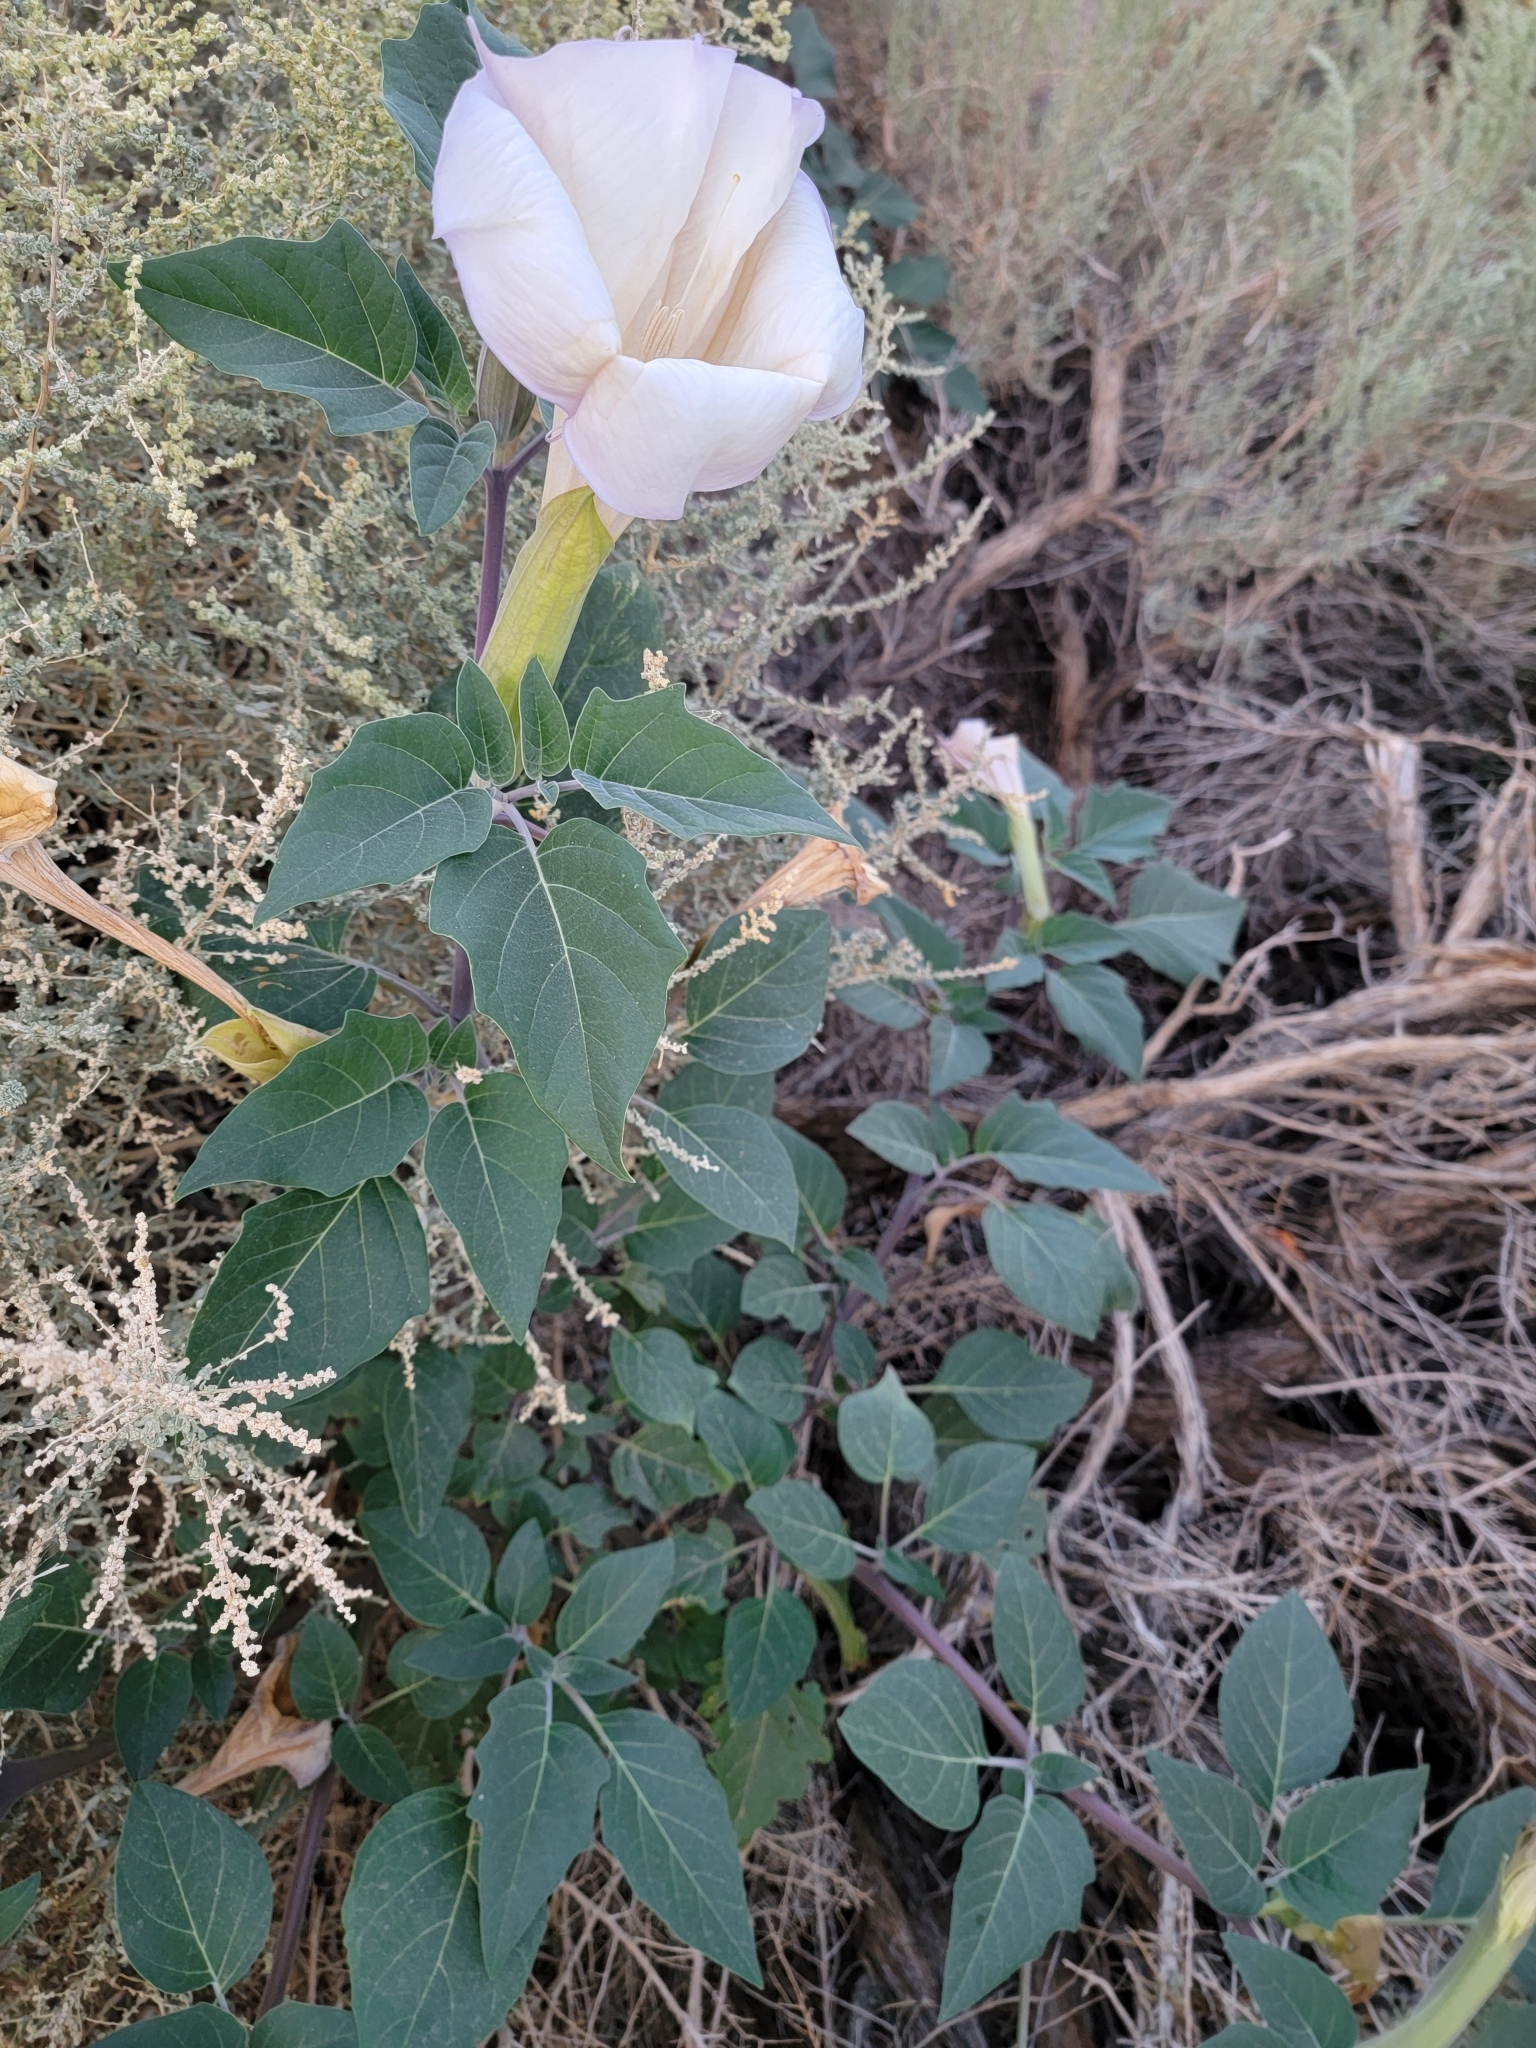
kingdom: Plantae
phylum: Tracheophyta
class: Magnoliopsida
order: Solanales
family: Solanaceae
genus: Datura
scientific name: Datura wrightii
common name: Sacred thorn-apple
